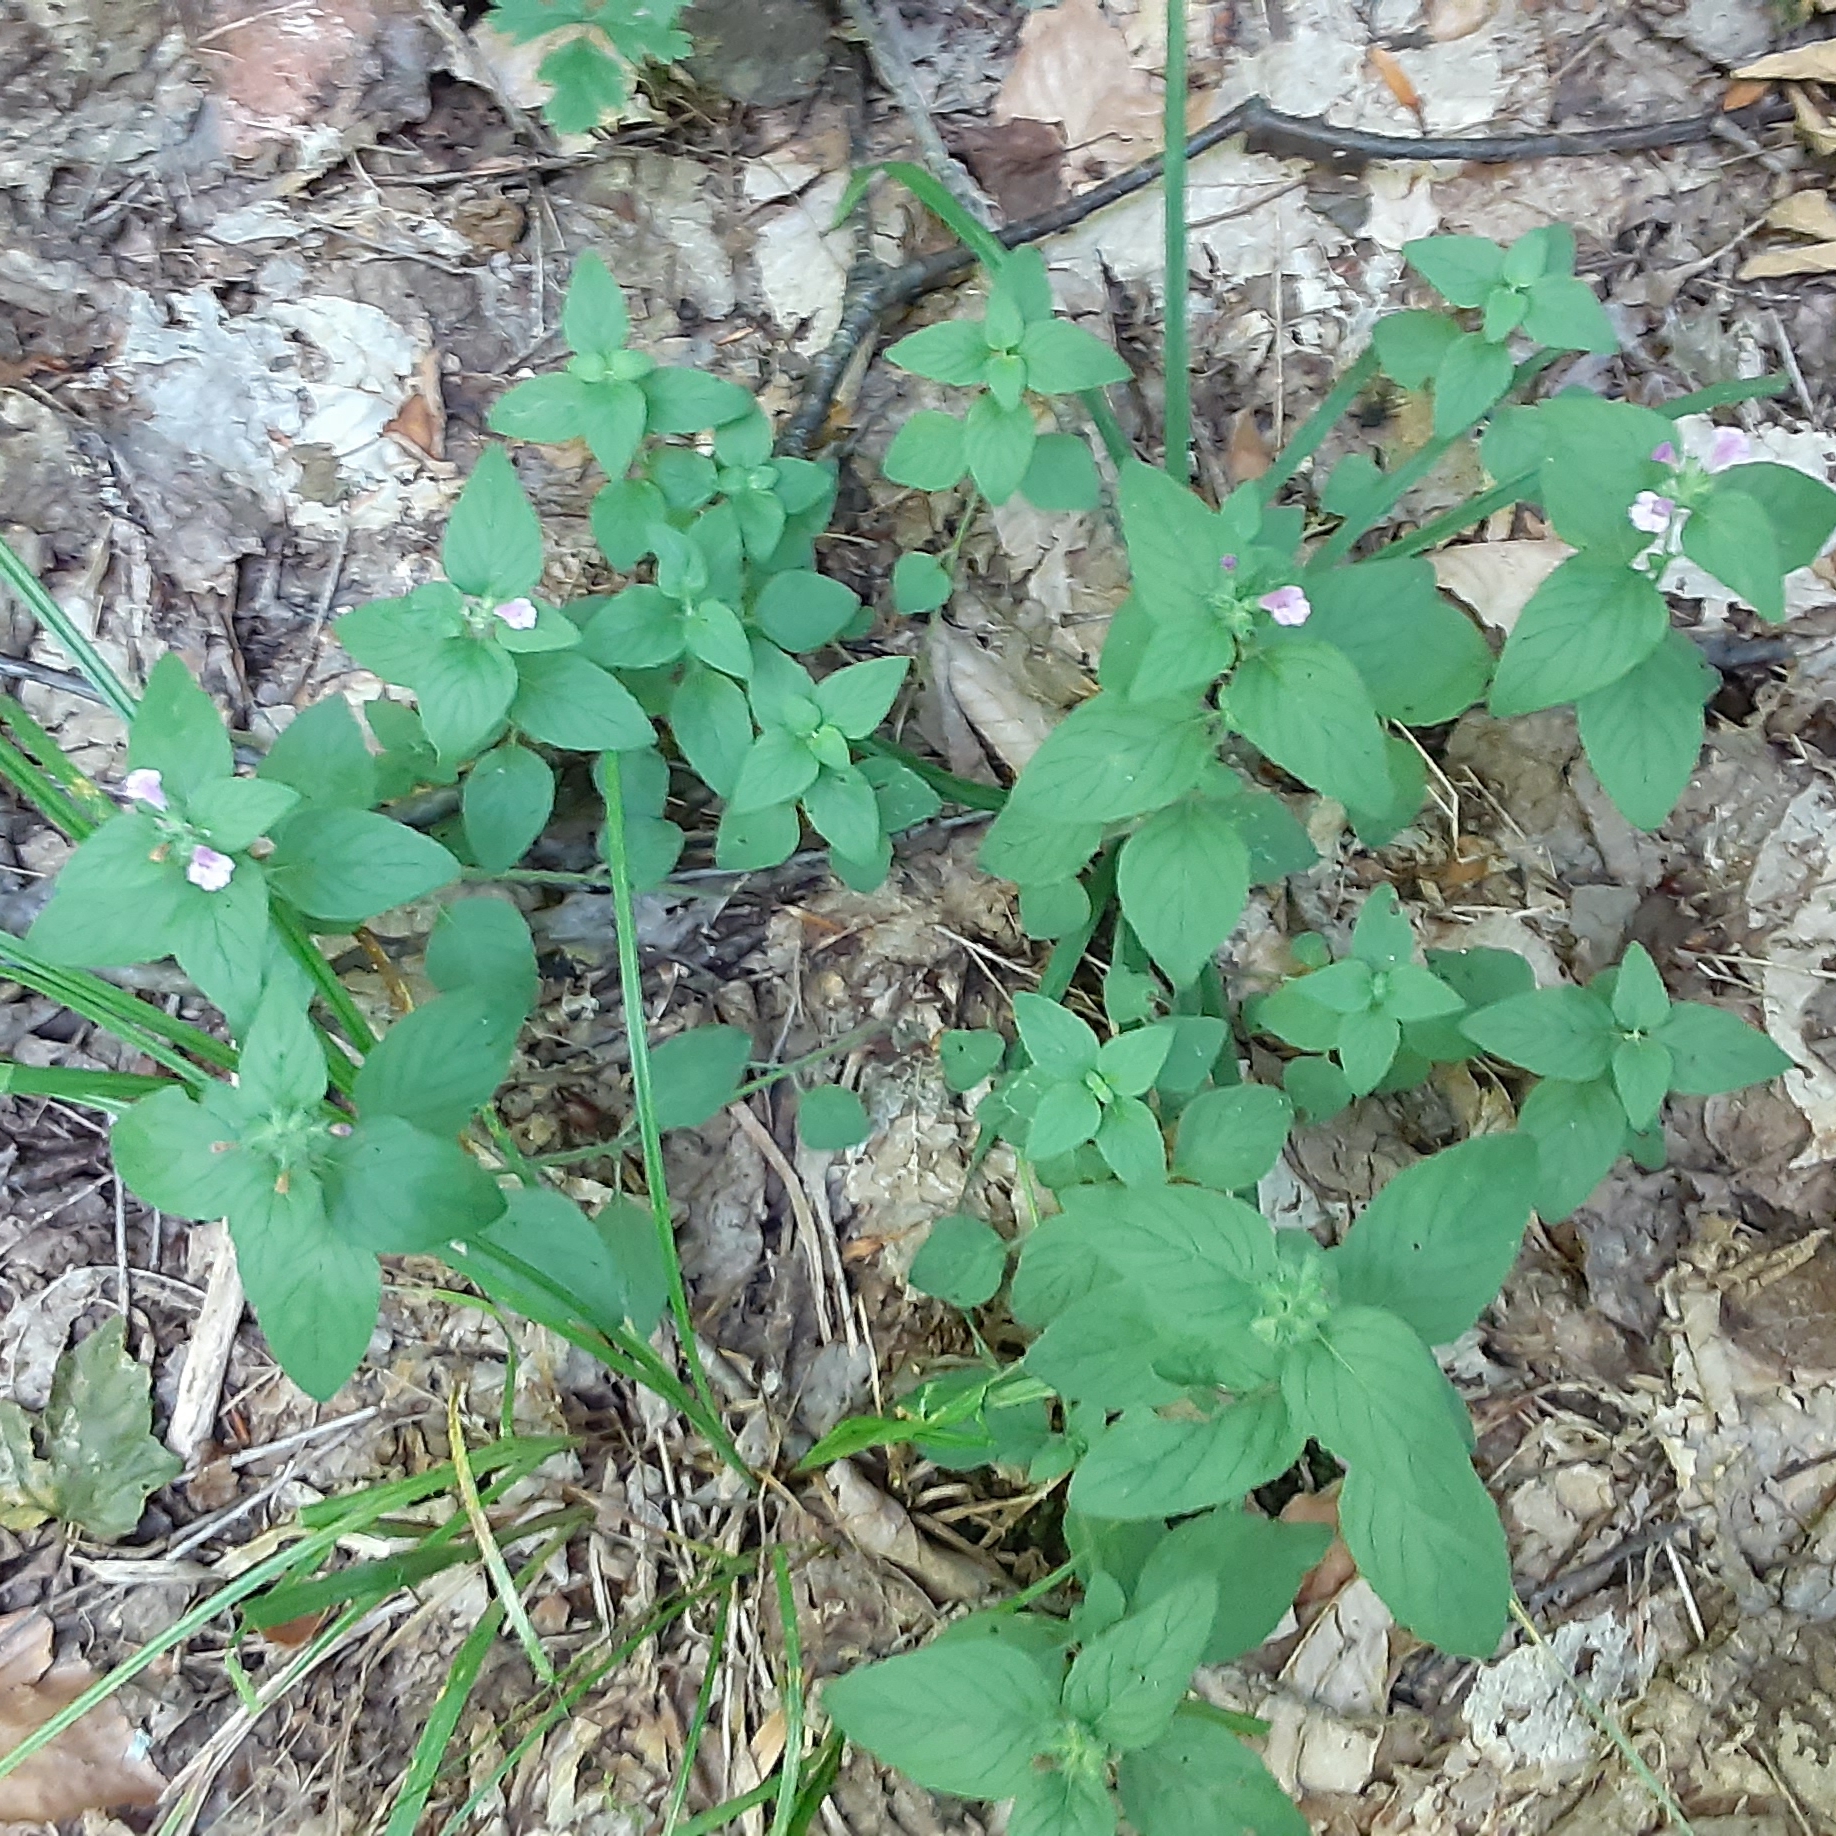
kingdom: Plantae
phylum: Tracheophyta
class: Magnoliopsida
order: Lamiales
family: Lamiaceae
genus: Clinopodium
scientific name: Clinopodium vulgare
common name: Wild basil
